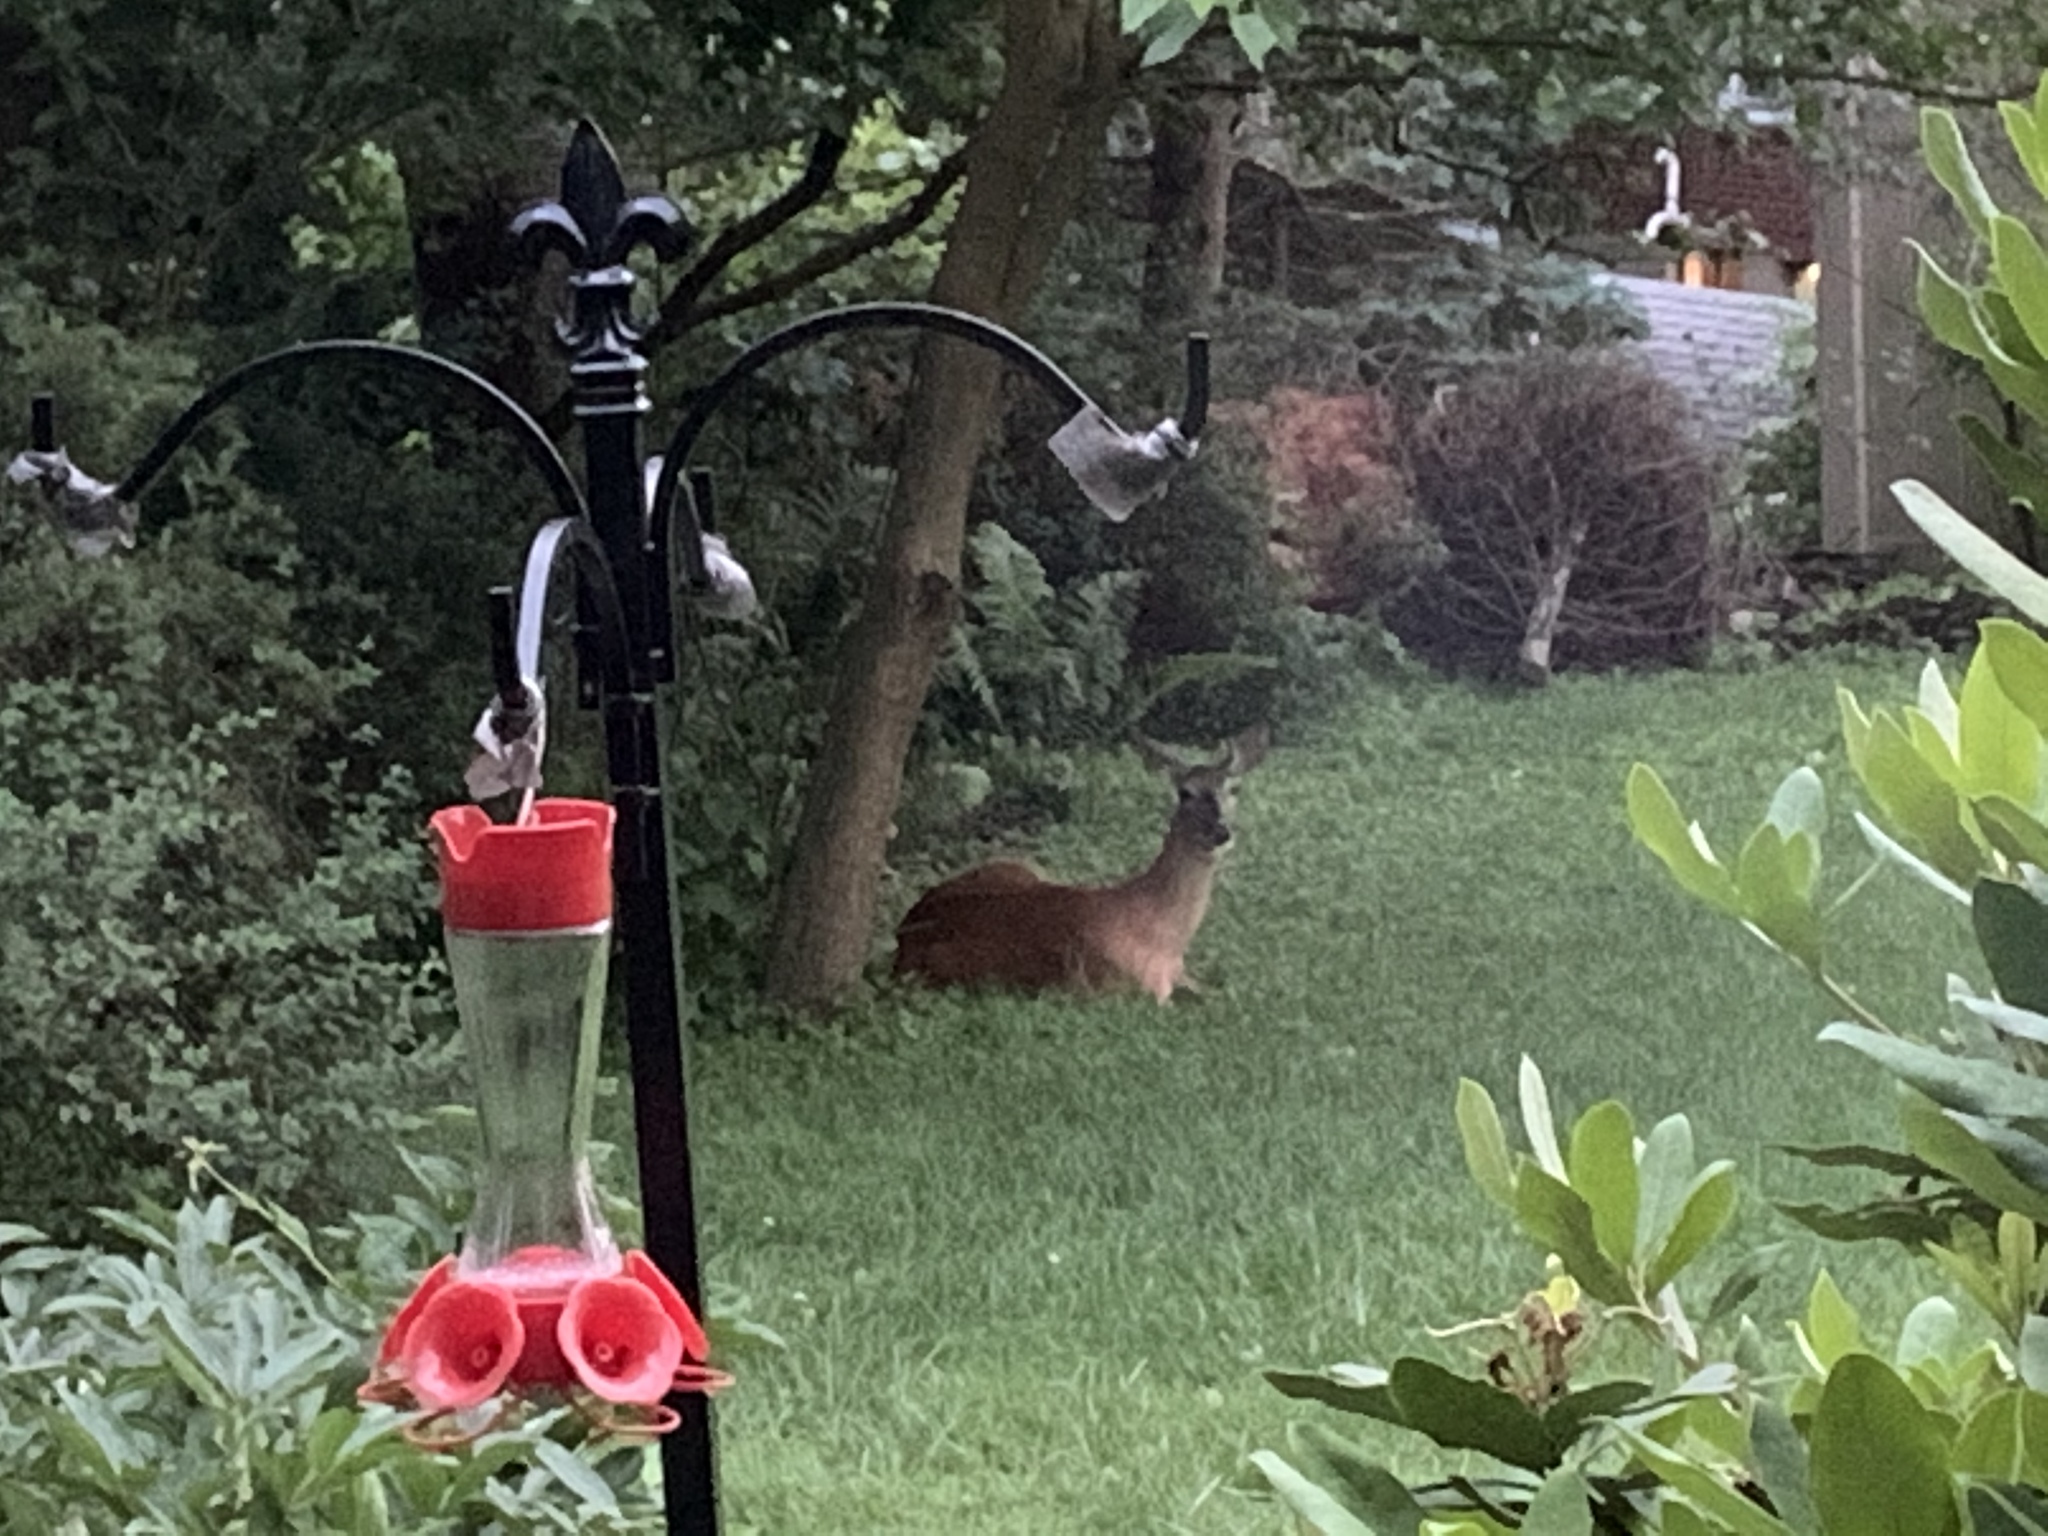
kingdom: Animalia
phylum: Chordata
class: Mammalia
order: Artiodactyla
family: Cervidae
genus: Odocoileus
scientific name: Odocoileus virginianus
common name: White-tailed deer
